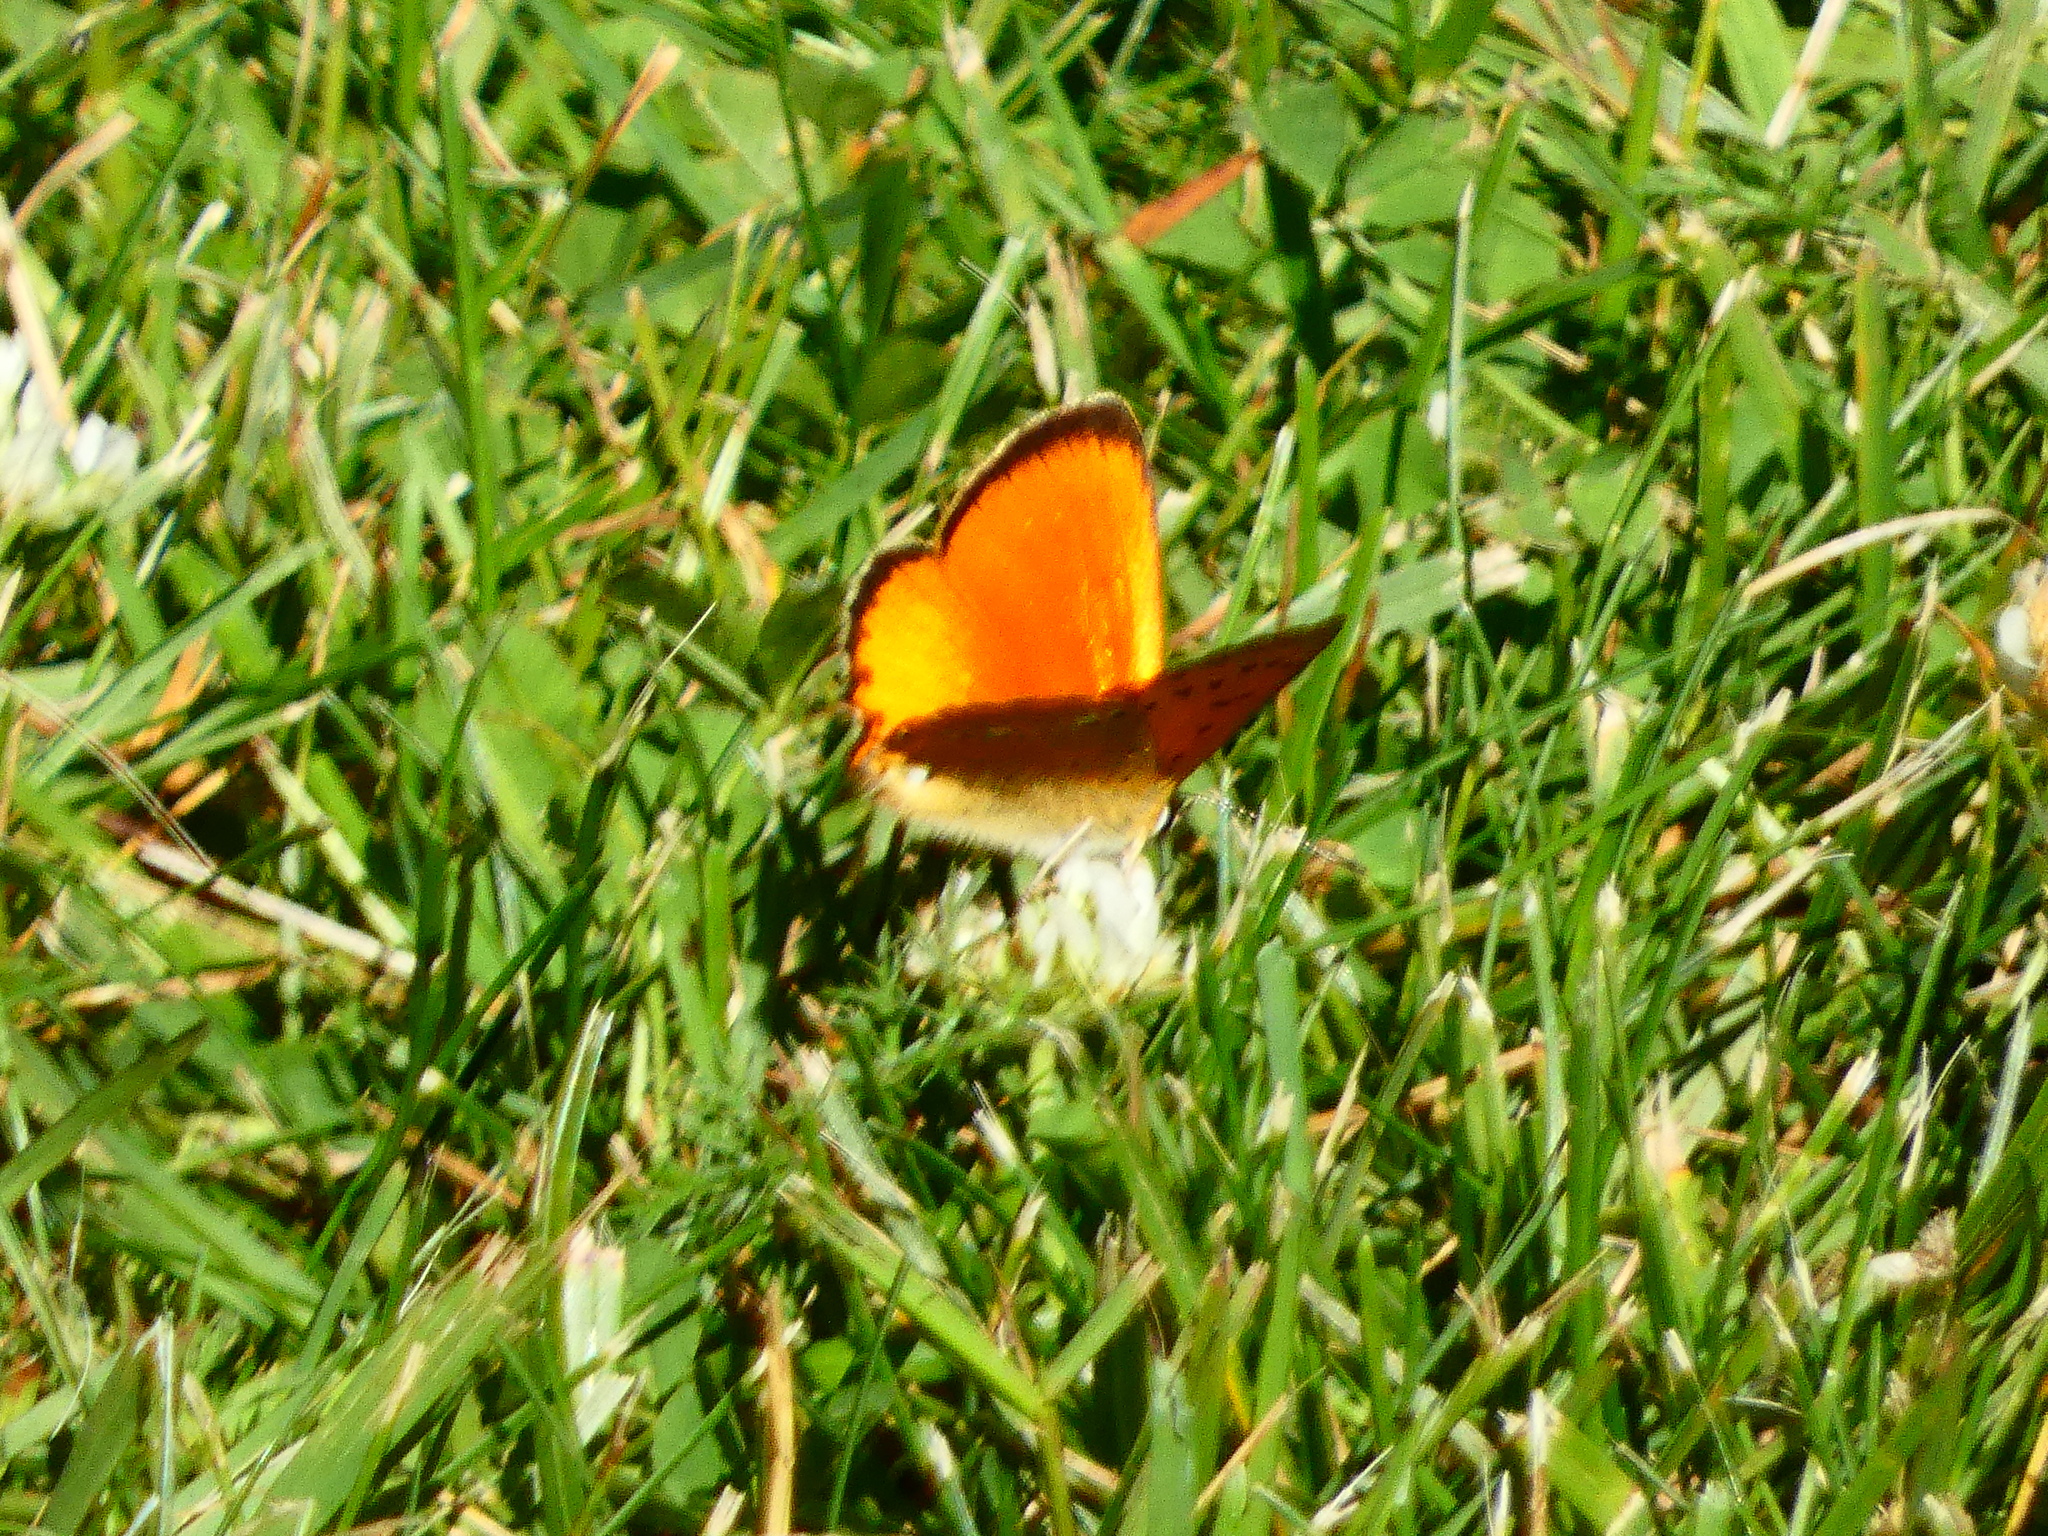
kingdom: Animalia
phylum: Arthropoda
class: Insecta
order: Lepidoptera
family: Lycaenidae
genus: Lycaena
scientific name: Lycaena virgaureae
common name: Scarce copper
